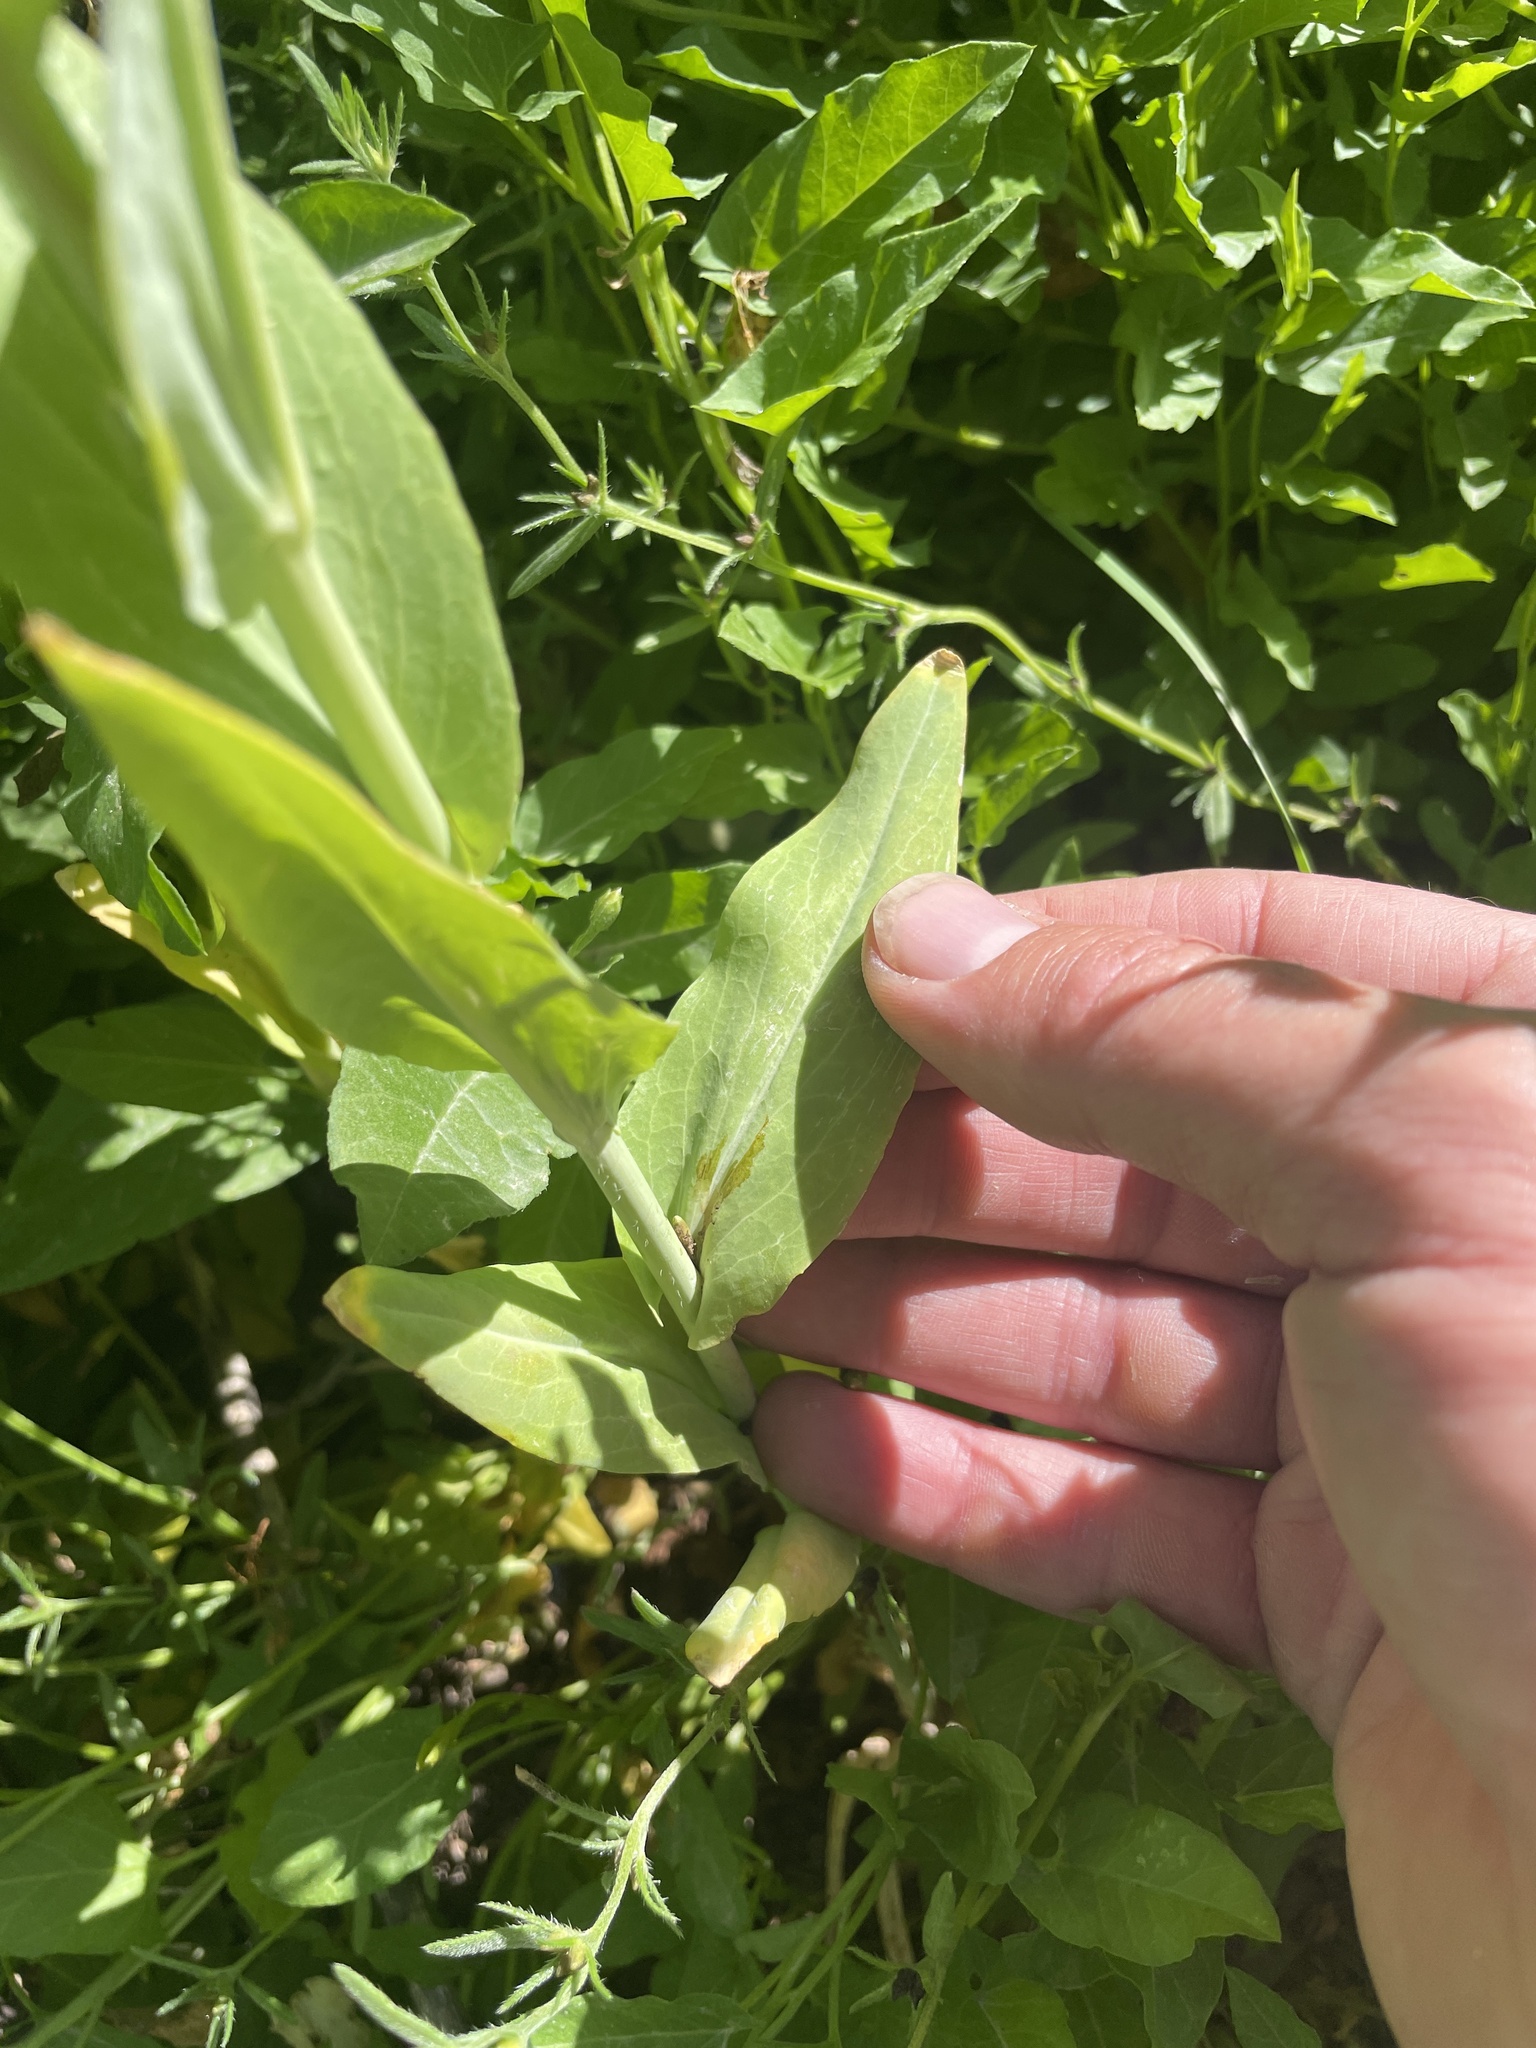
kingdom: Plantae
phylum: Tracheophyta
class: Magnoliopsida
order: Brassicales
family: Brassicaceae
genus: Turritis
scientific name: Turritis glabra
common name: Tower rockcress
